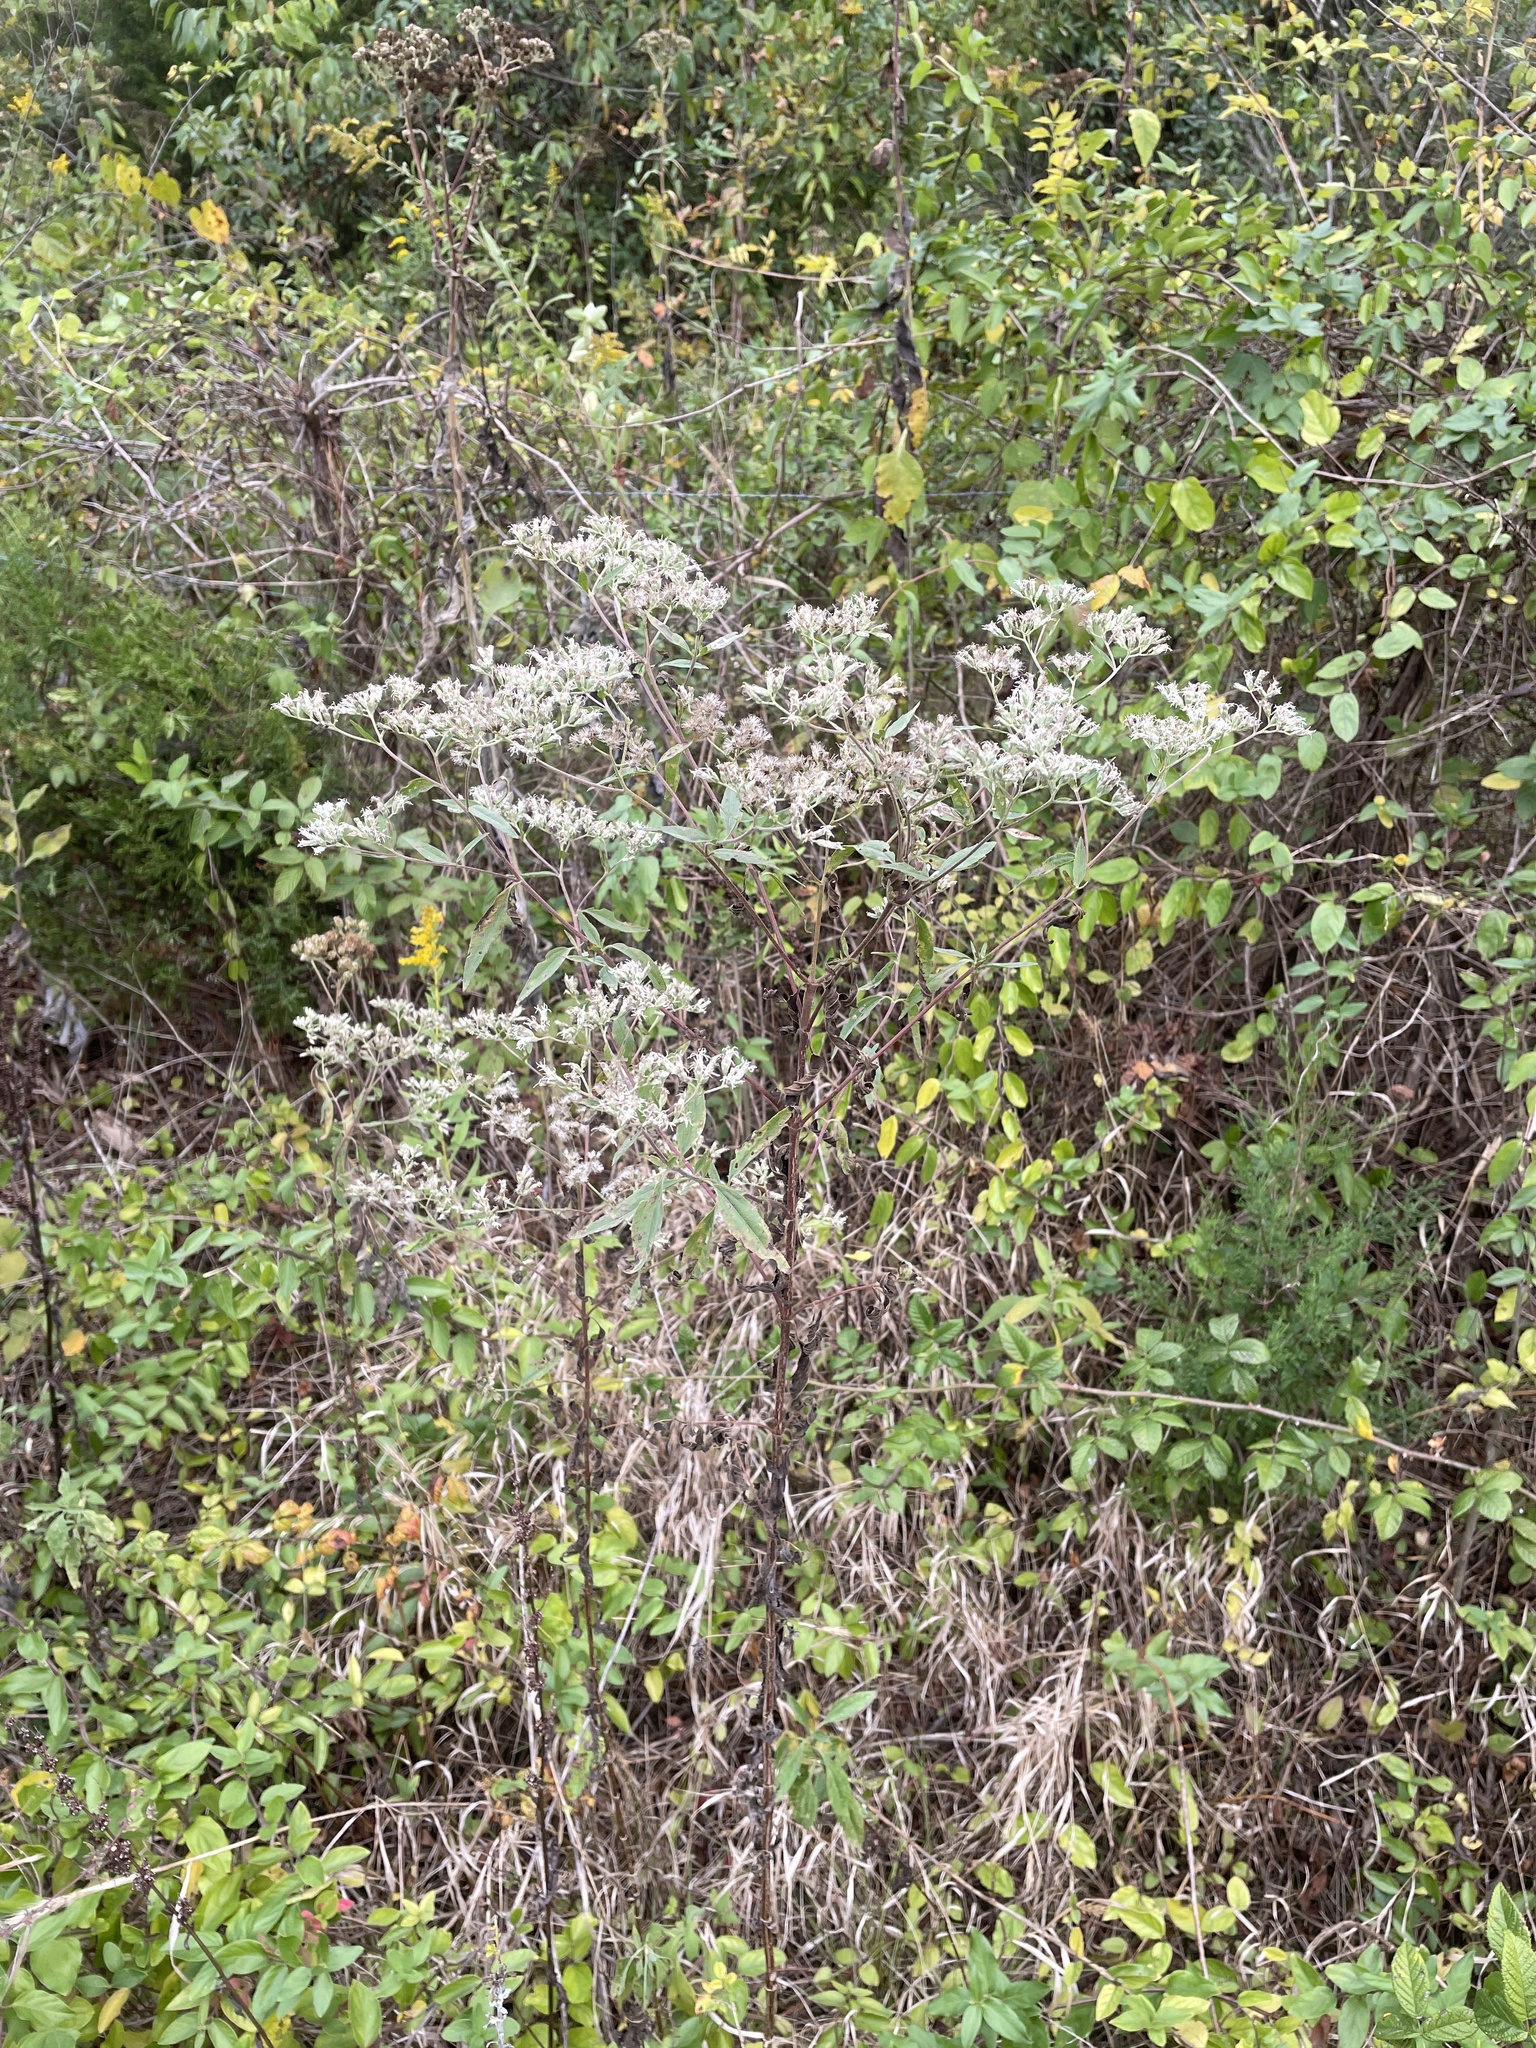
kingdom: Plantae
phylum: Tracheophyta
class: Magnoliopsida
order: Asterales
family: Asteraceae
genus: Eupatorium
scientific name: Eupatorium serotinum
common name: Late boneset
